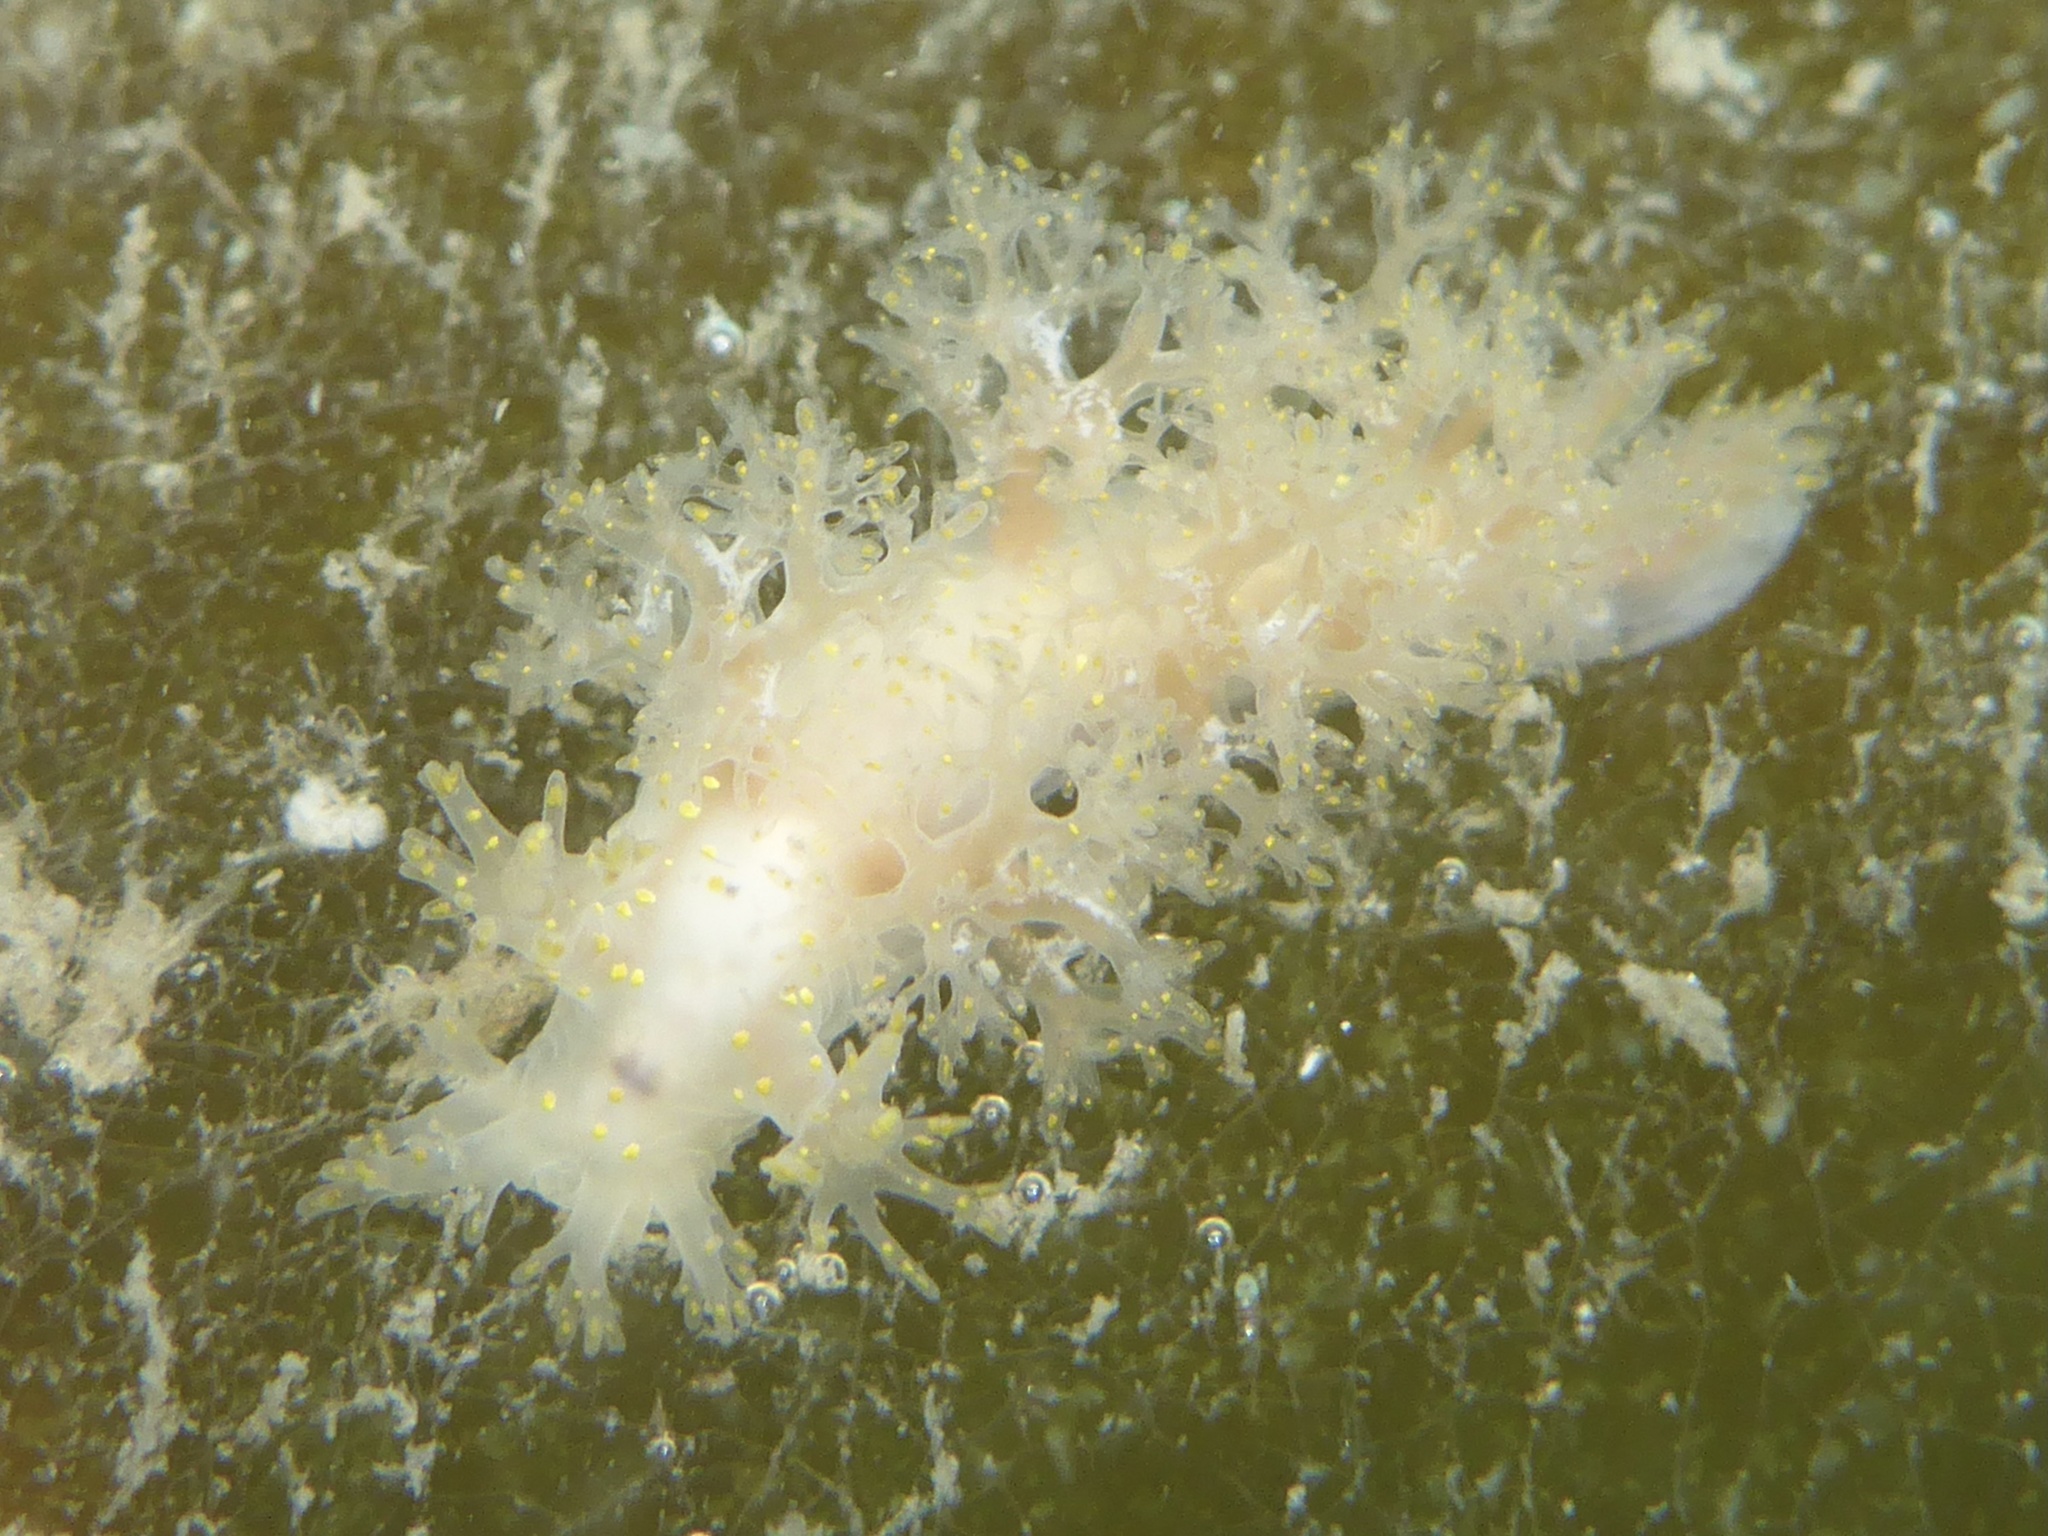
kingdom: Animalia
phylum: Mollusca
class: Gastropoda
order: Nudibranchia
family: Dendronotidae
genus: Dendronotus
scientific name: Dendronotus venustus
